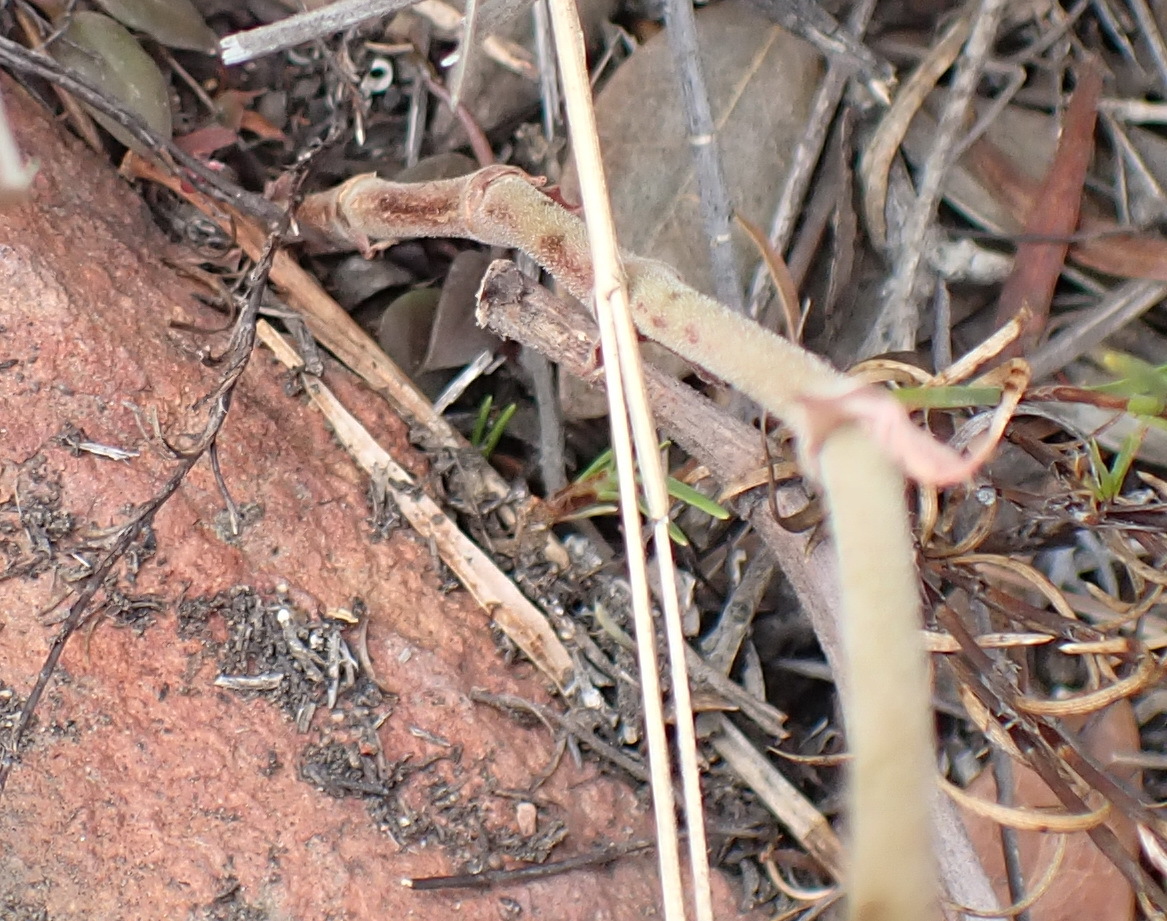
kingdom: Plantae
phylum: Tracheophyta
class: Magnoliopsida
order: Geraniales
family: Geraniaceae
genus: Pelargonium
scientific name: Pelargonium pillansii
